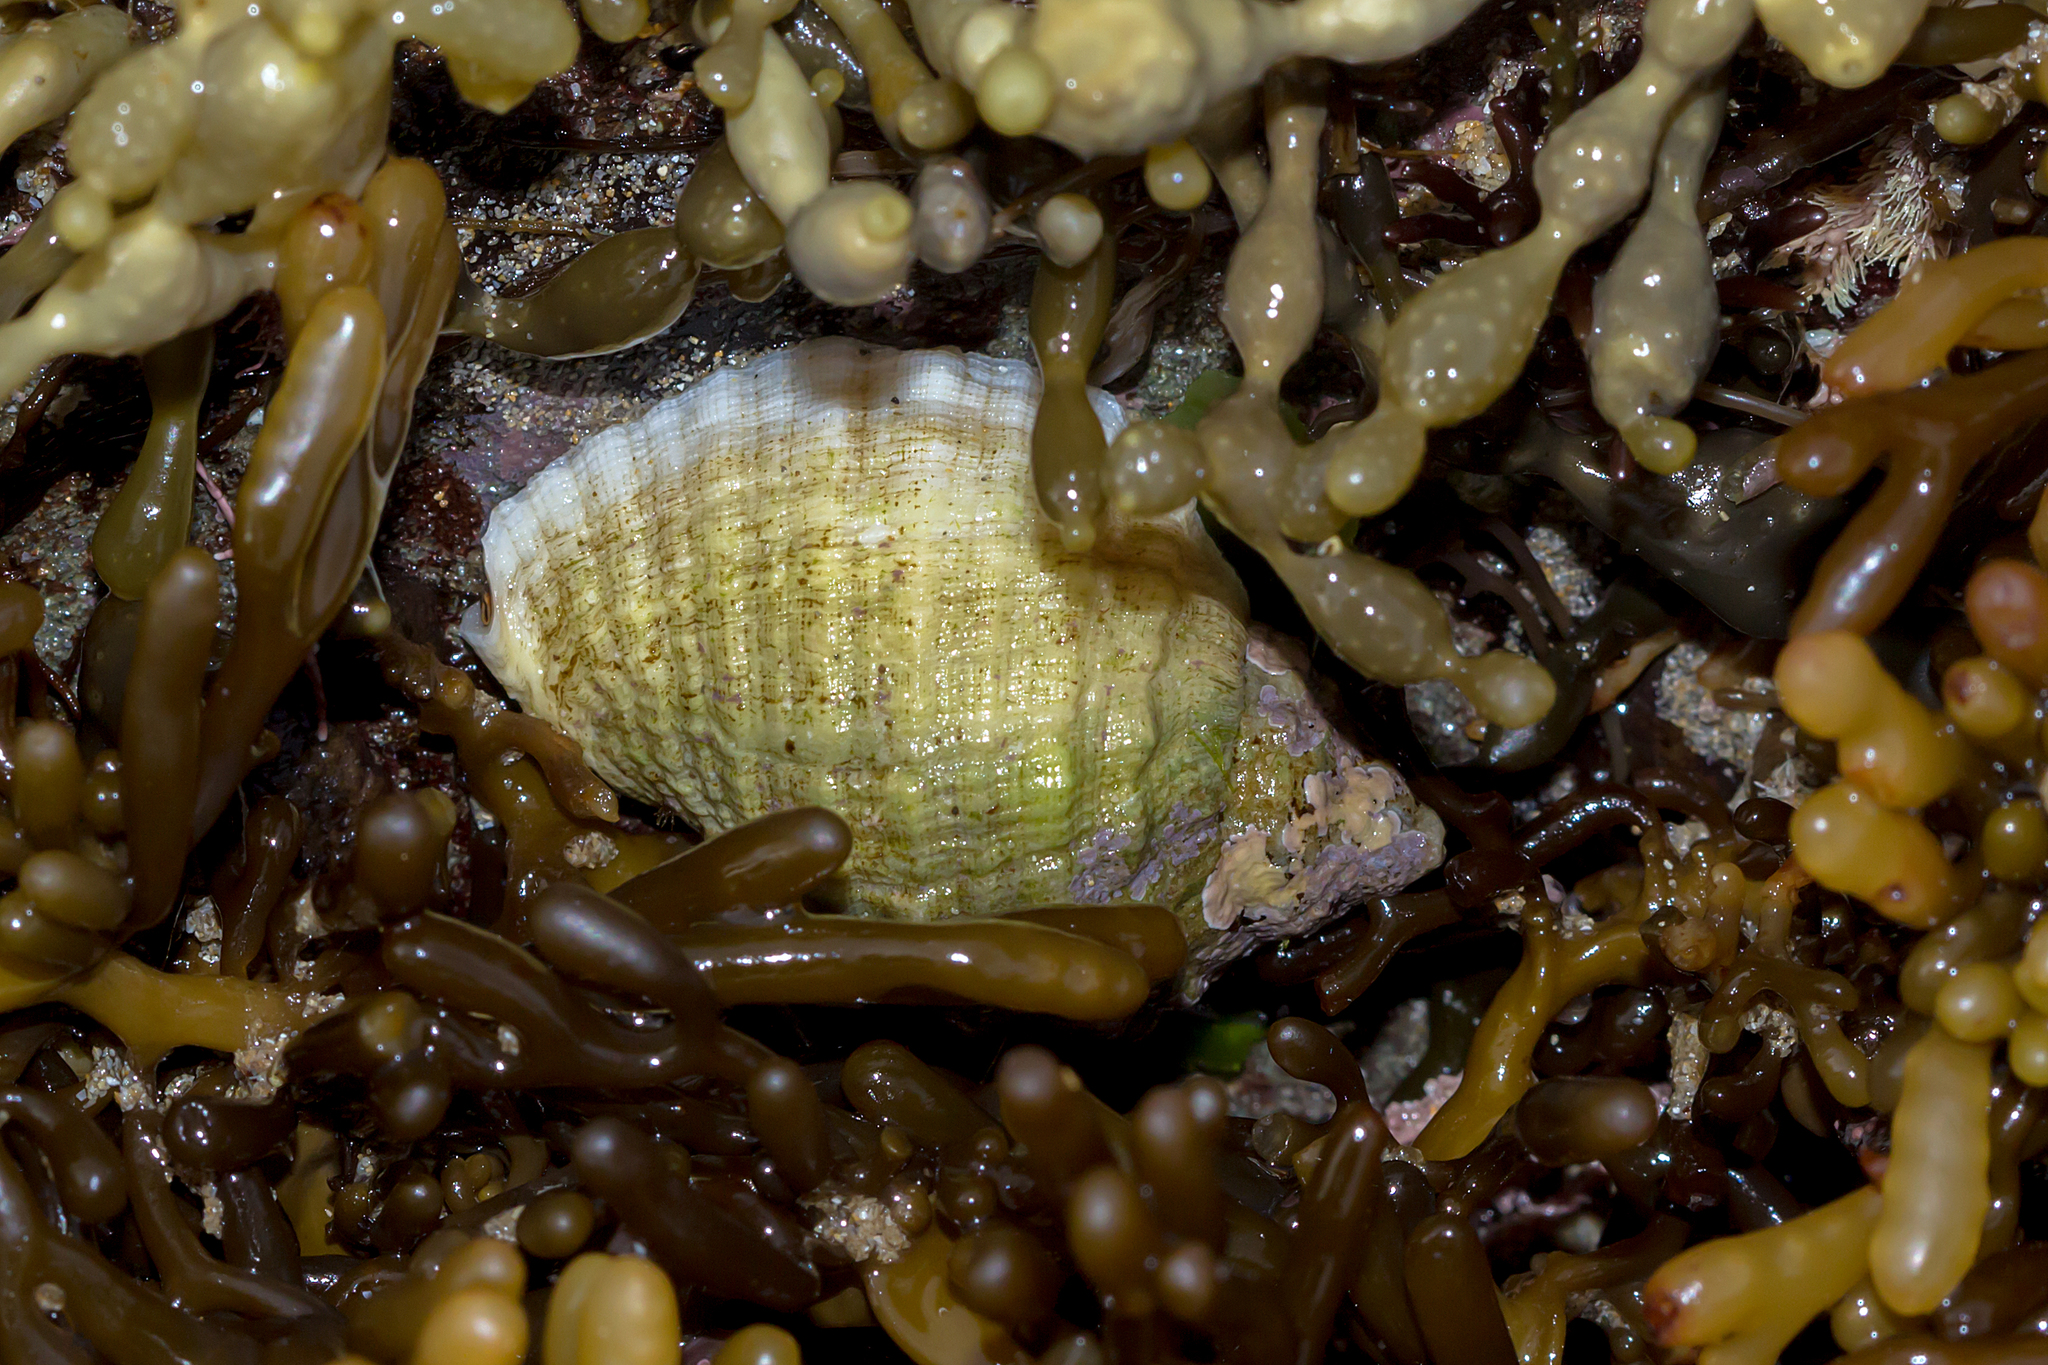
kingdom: Animalia
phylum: Mollusca
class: Gastropoda
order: Neogastropoda
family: Muricidae
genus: Dicathais
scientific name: Dicathais orbita
